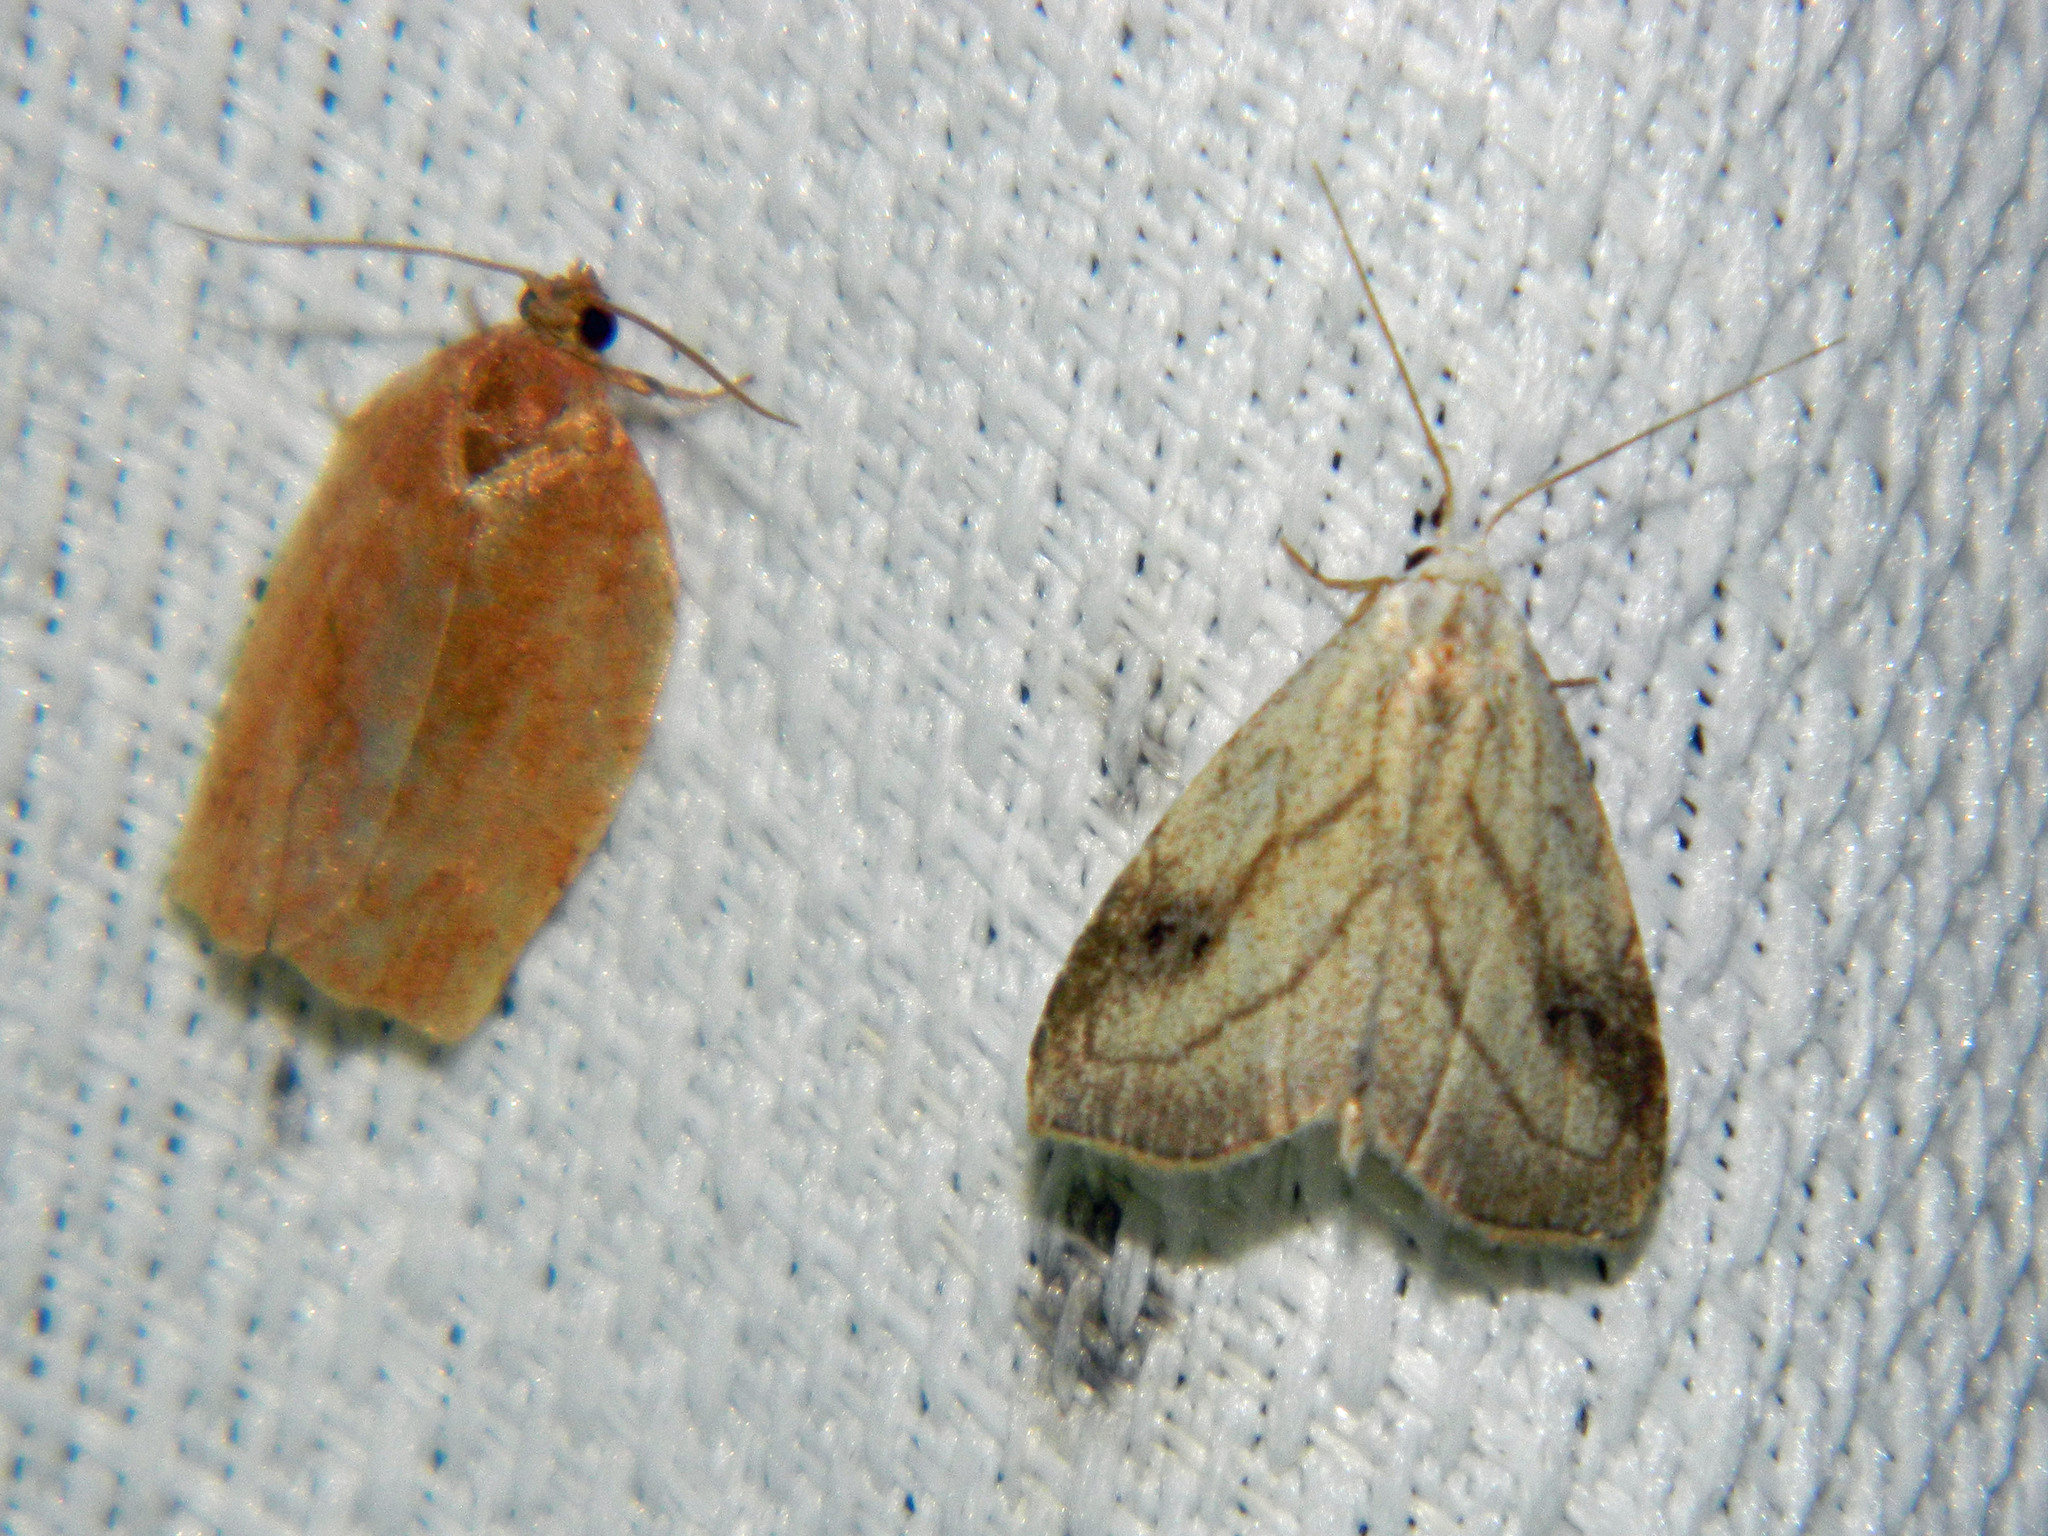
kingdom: Animalia
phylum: Arthropoda
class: Insecta
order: Lepidoptera
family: Erebidae
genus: Rivula
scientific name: Rivula propinqualis
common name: Spotted grass moth
